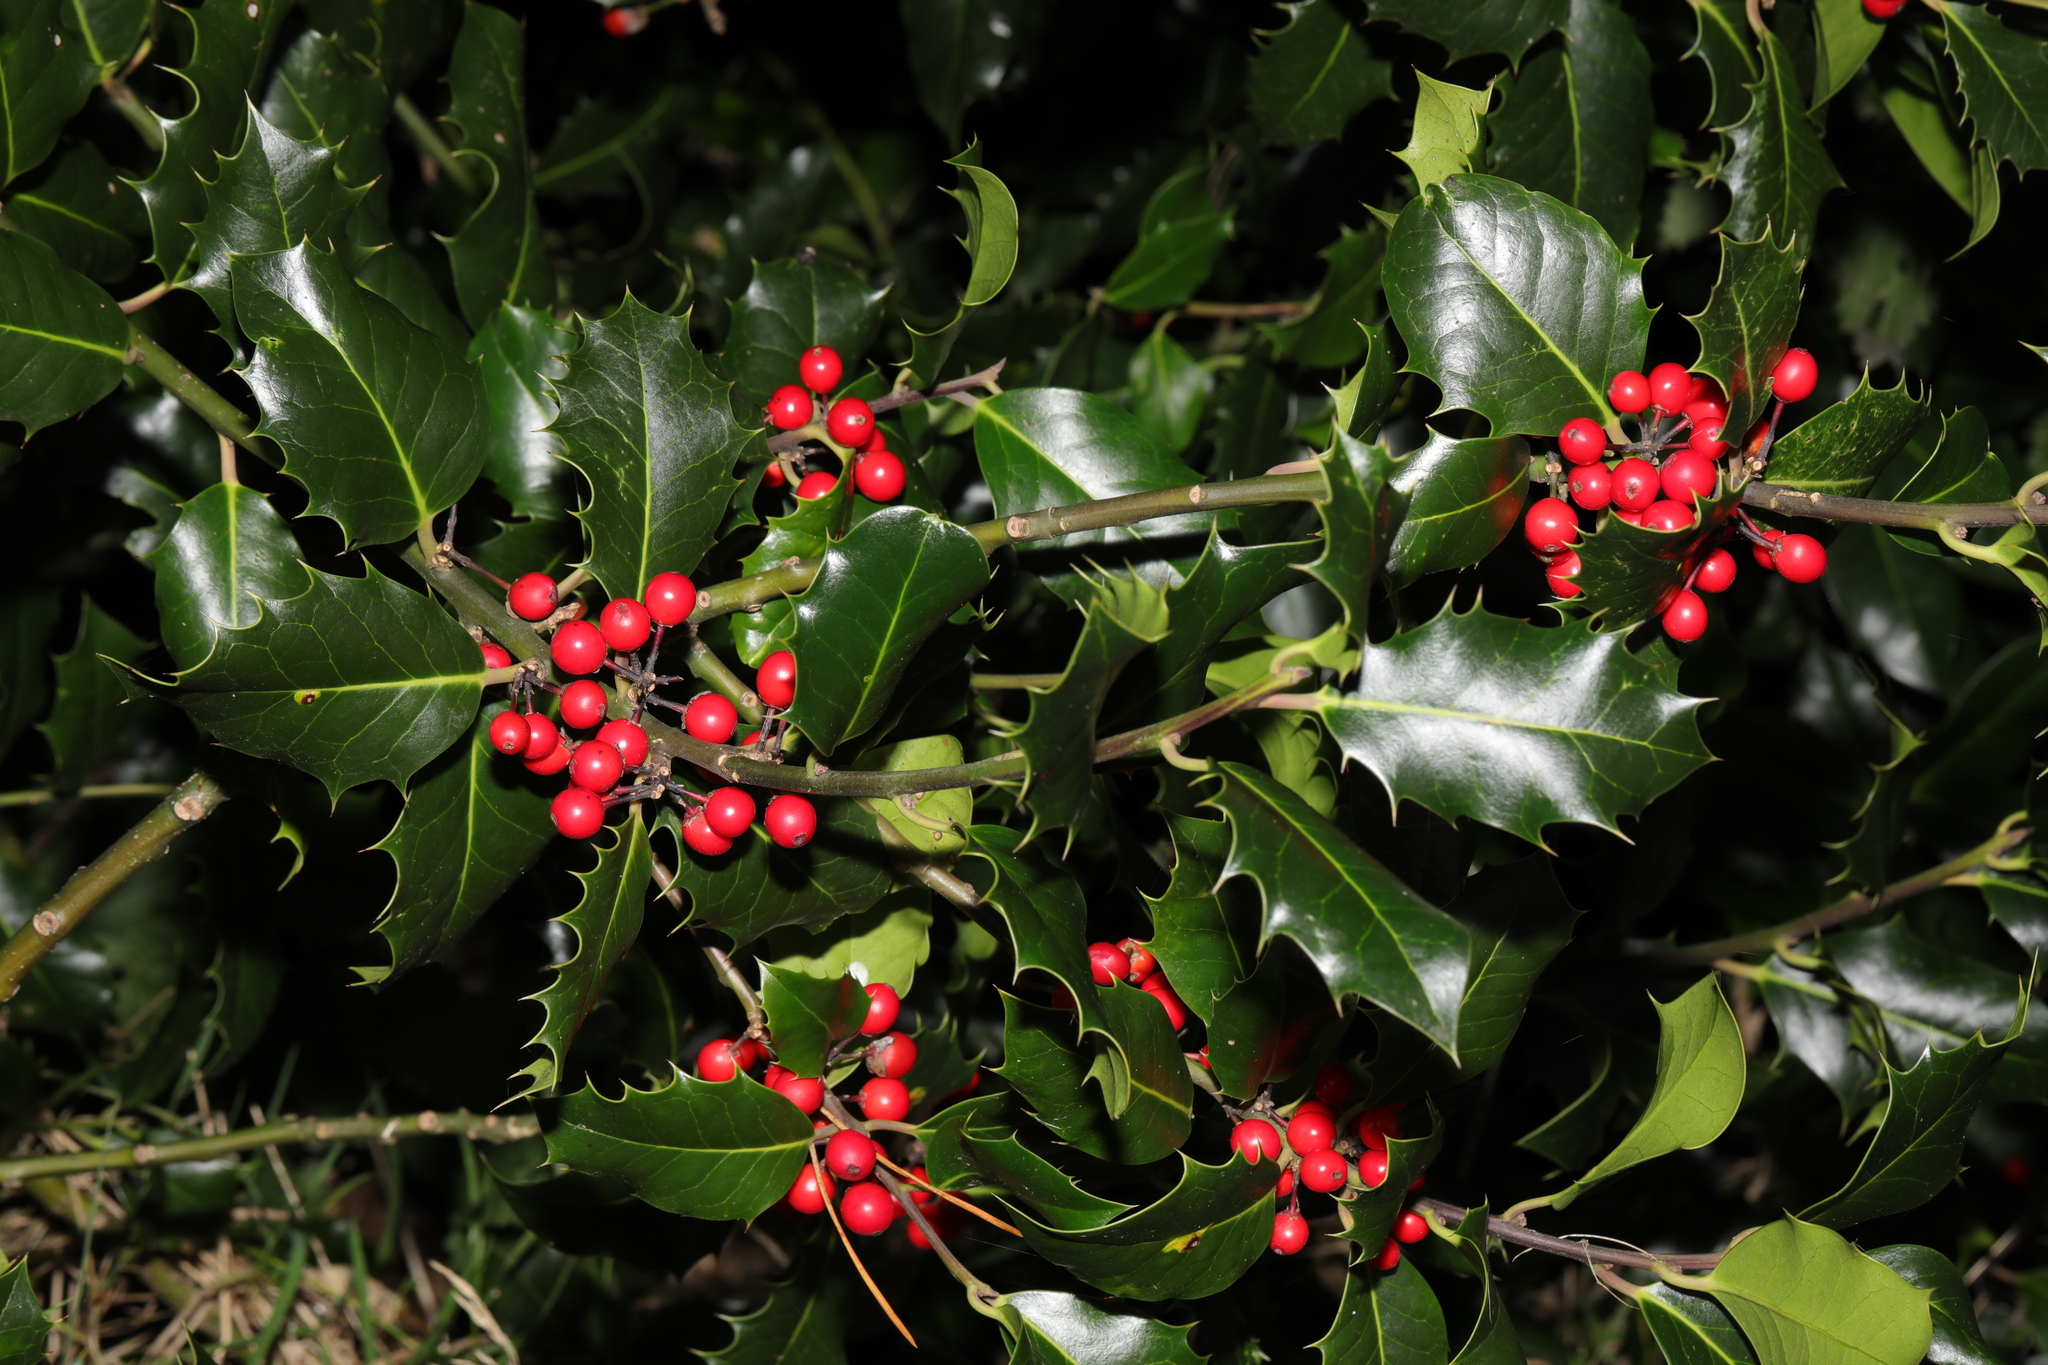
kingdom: Plantae
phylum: Tracheophyta
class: Magnoliopsida
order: Aquifoliales
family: Aquifoliaceae
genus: Ilex
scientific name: Ilex aquifolium
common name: English holly
